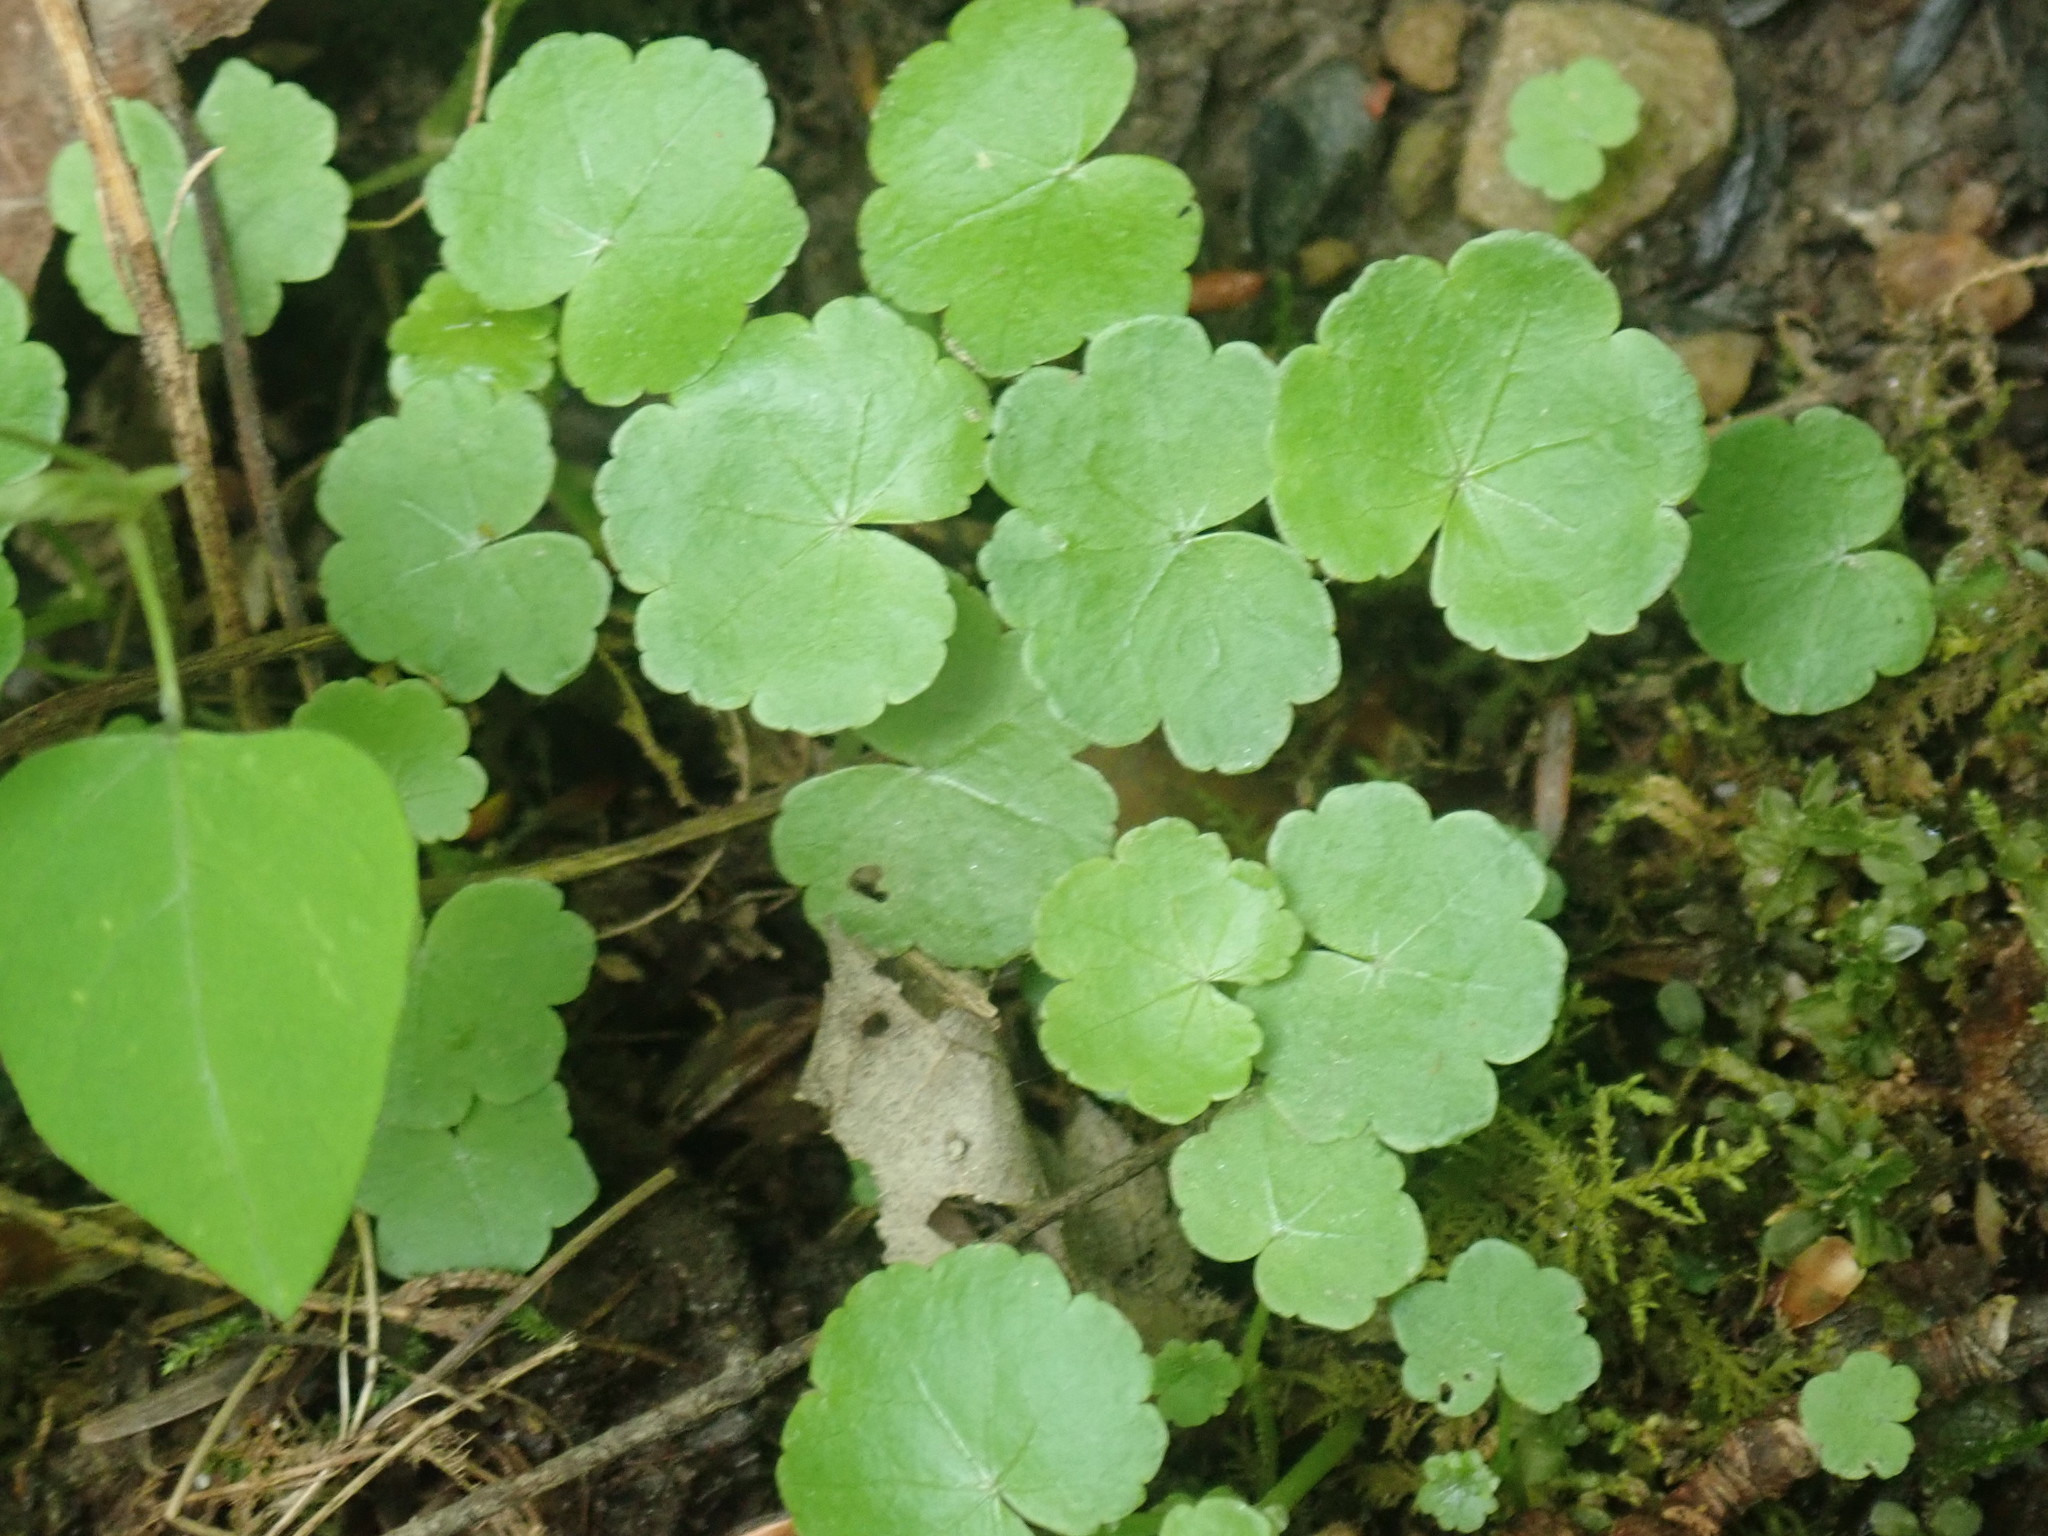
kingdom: Plantae
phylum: Tracheophyta
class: Magnoliopsida
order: Apiales
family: Araliaceae
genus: Hydrocotyle
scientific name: Hydrocotyle americana
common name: American water-pennywort
